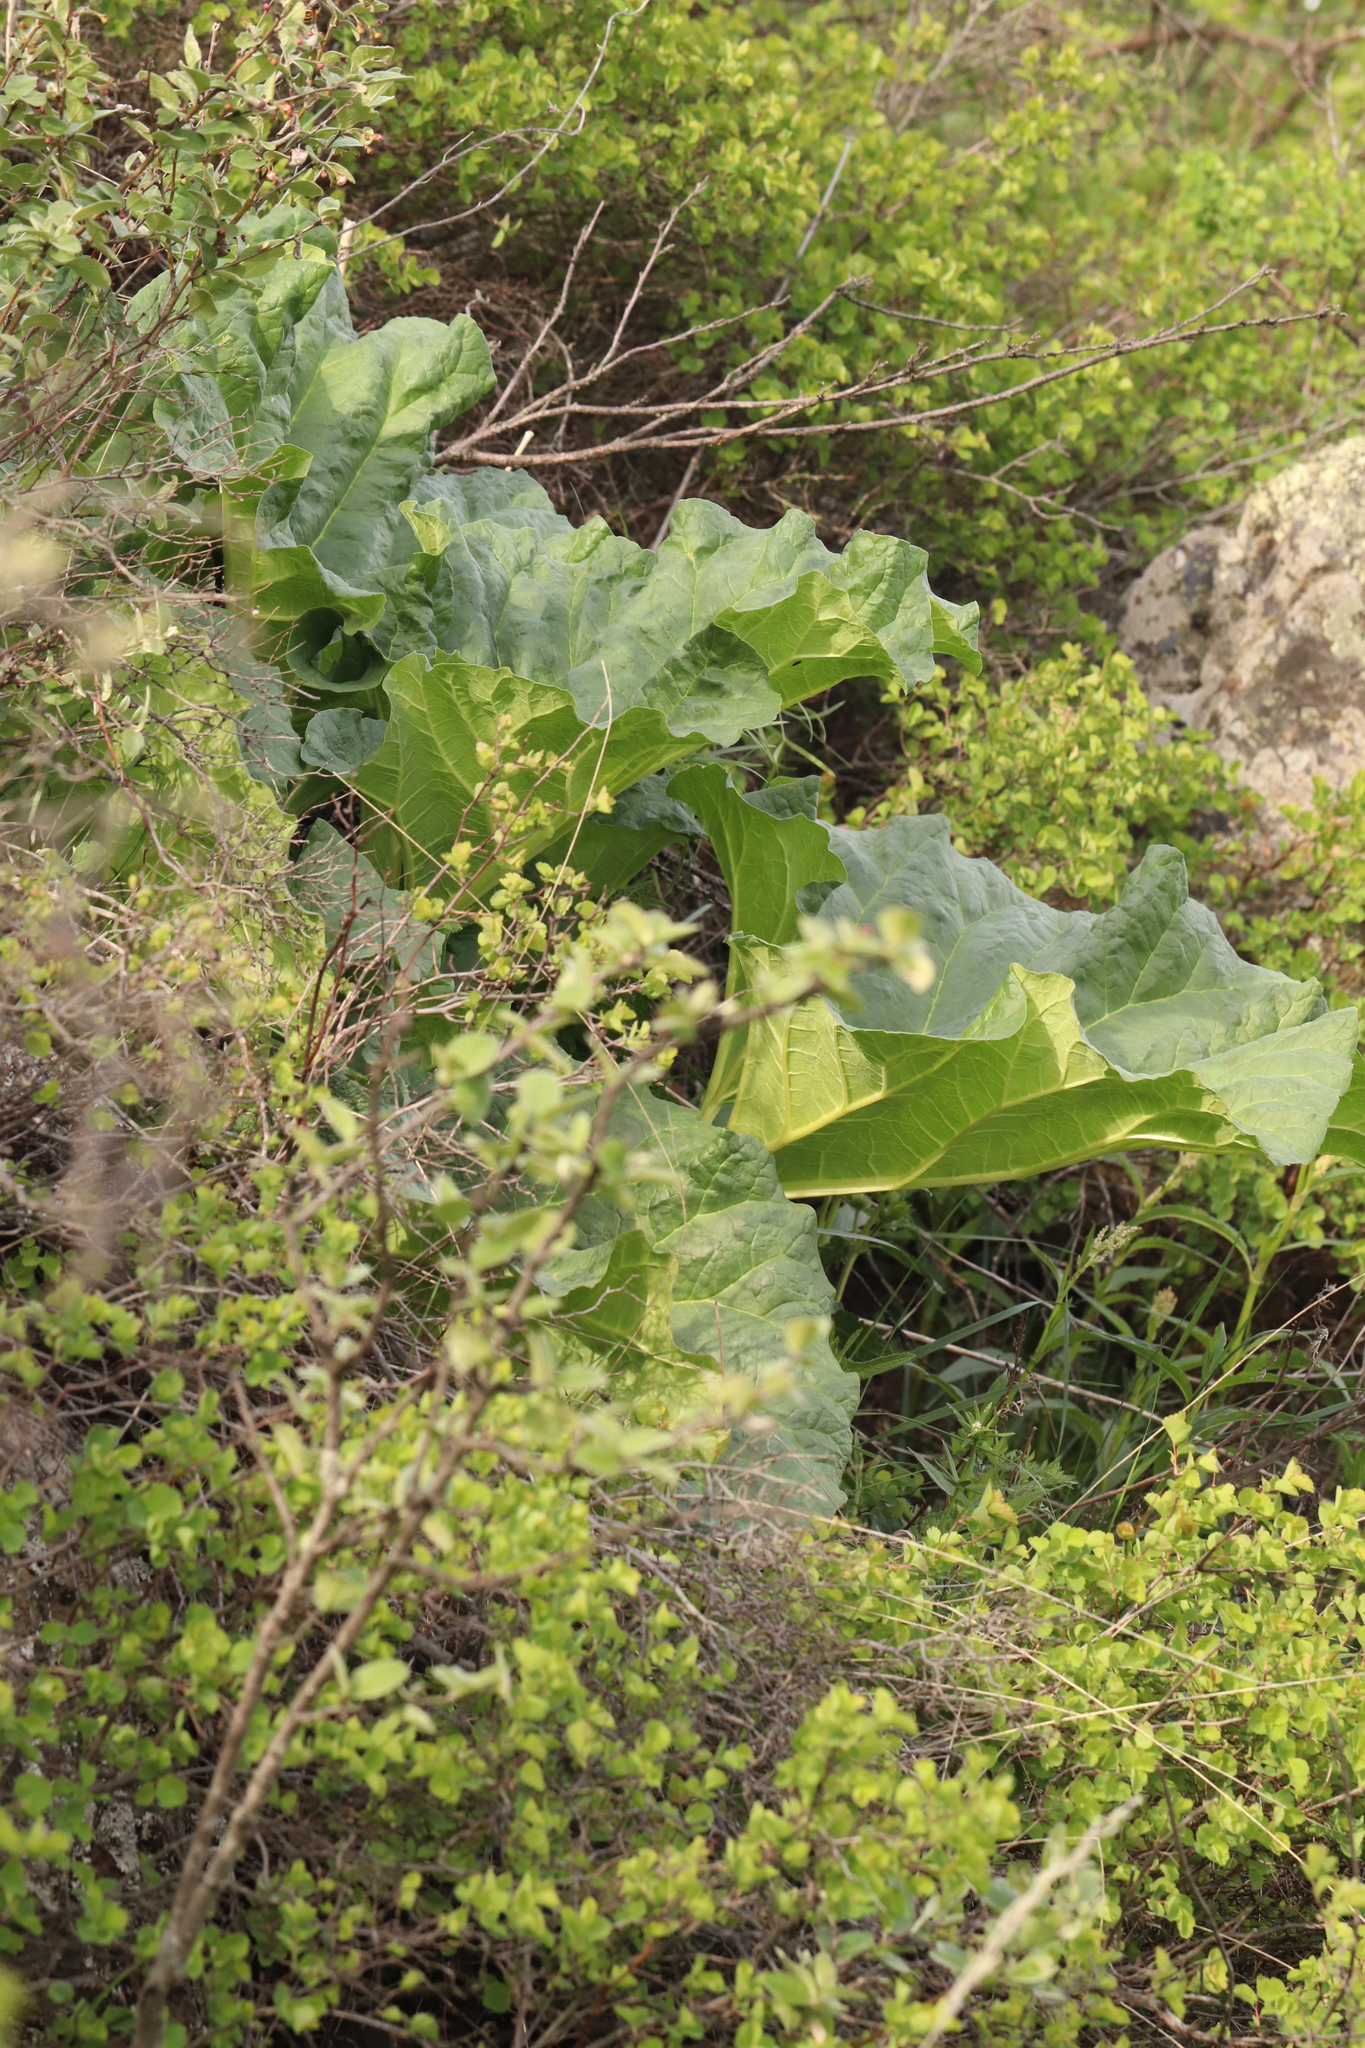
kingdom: Plantae
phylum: Tracheophyta
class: Magnoliopsida
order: Caryophyllales
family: Polygonaceae
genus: Rheum
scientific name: Rheum compactum
